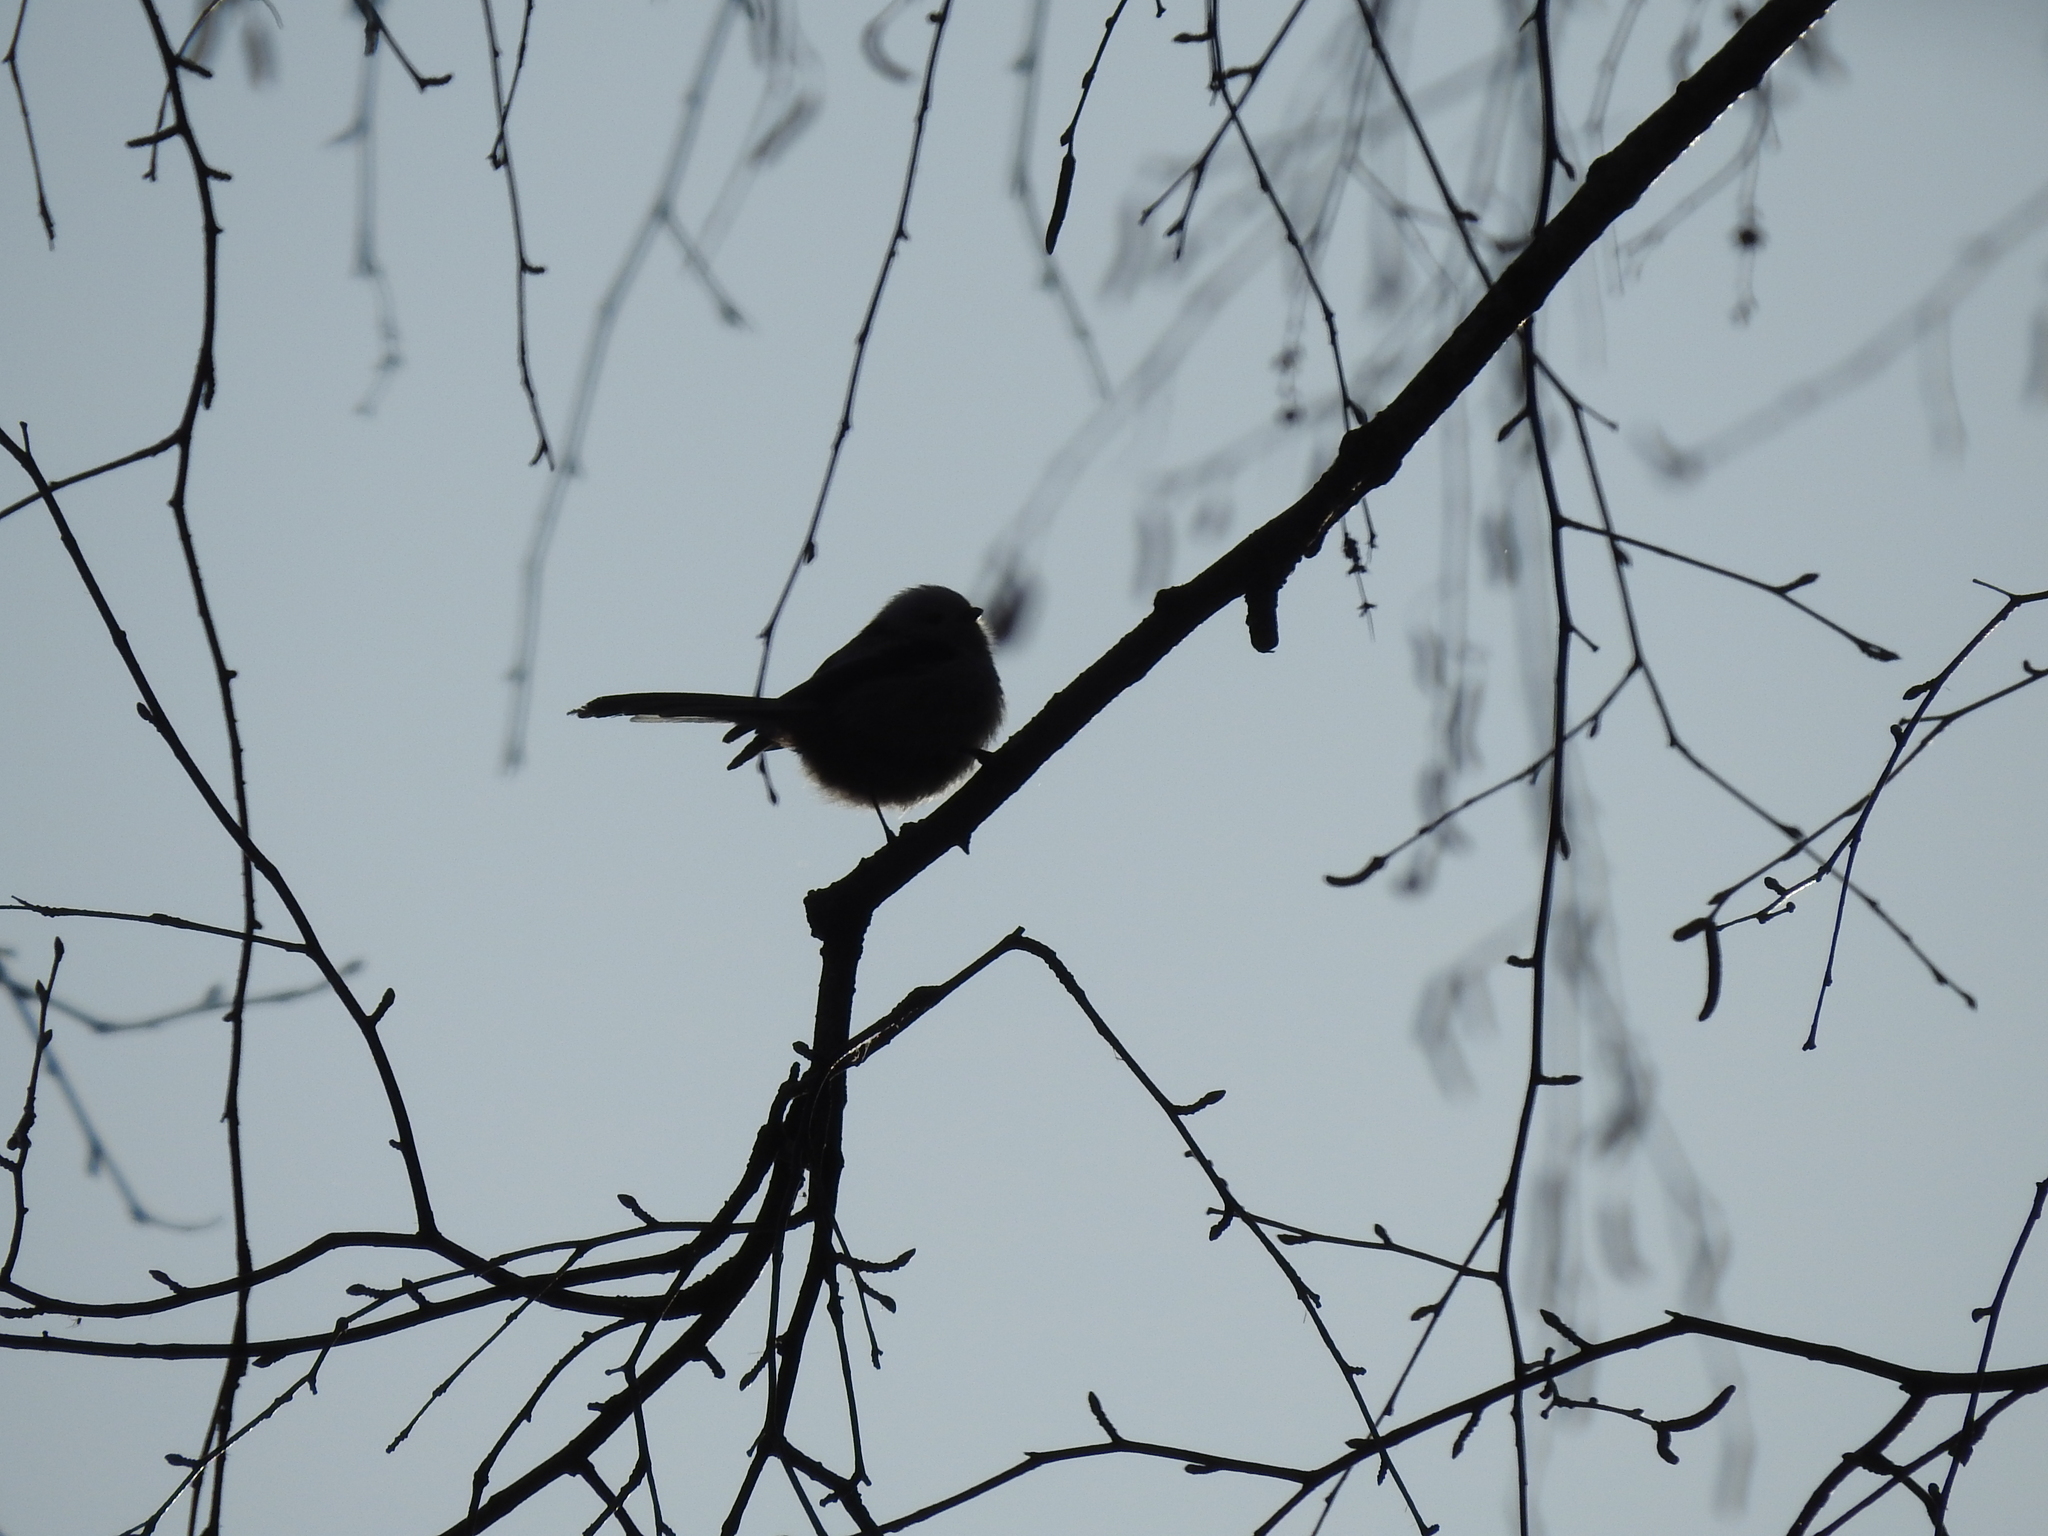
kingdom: Animalia
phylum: Chordata
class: Aves
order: Passeriformes
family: Aegithalidae
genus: Aegithalos
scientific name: Aegithalos caudatus
